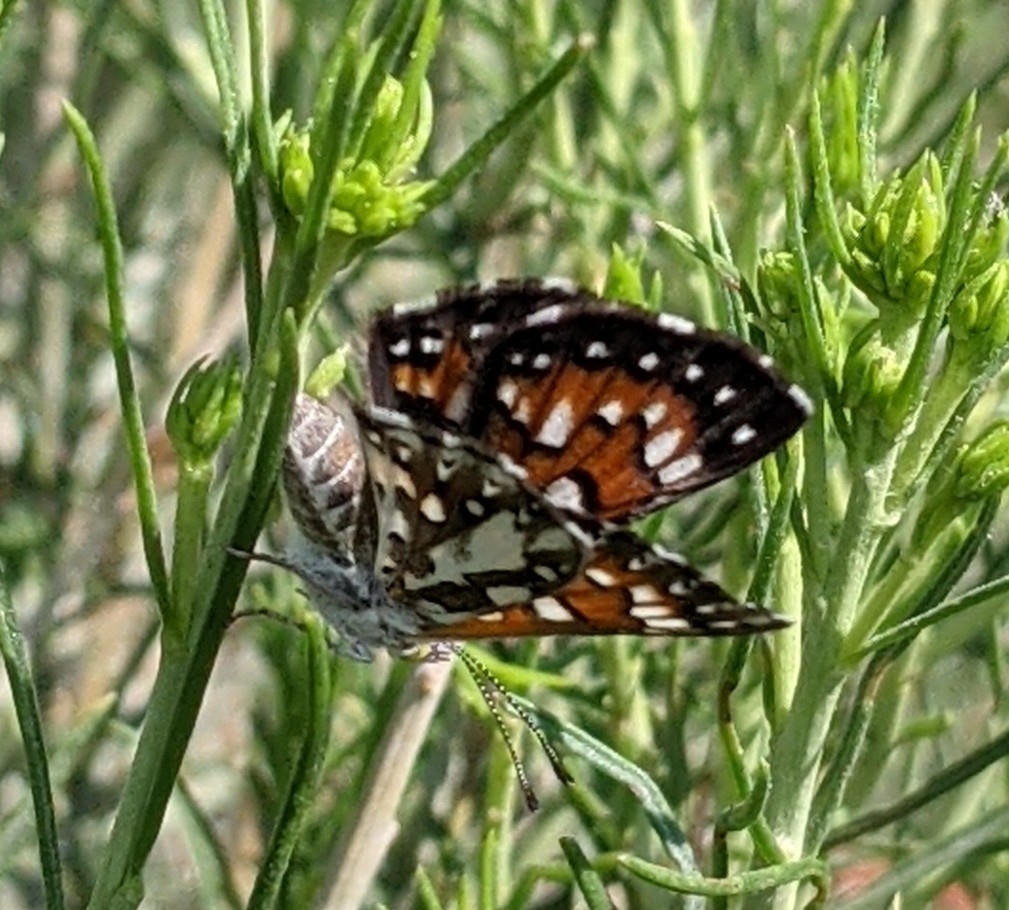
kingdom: Animalia
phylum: Arthropoda
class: Insecta
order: Lepidoptera
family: Riodinidae
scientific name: Riodinidae
